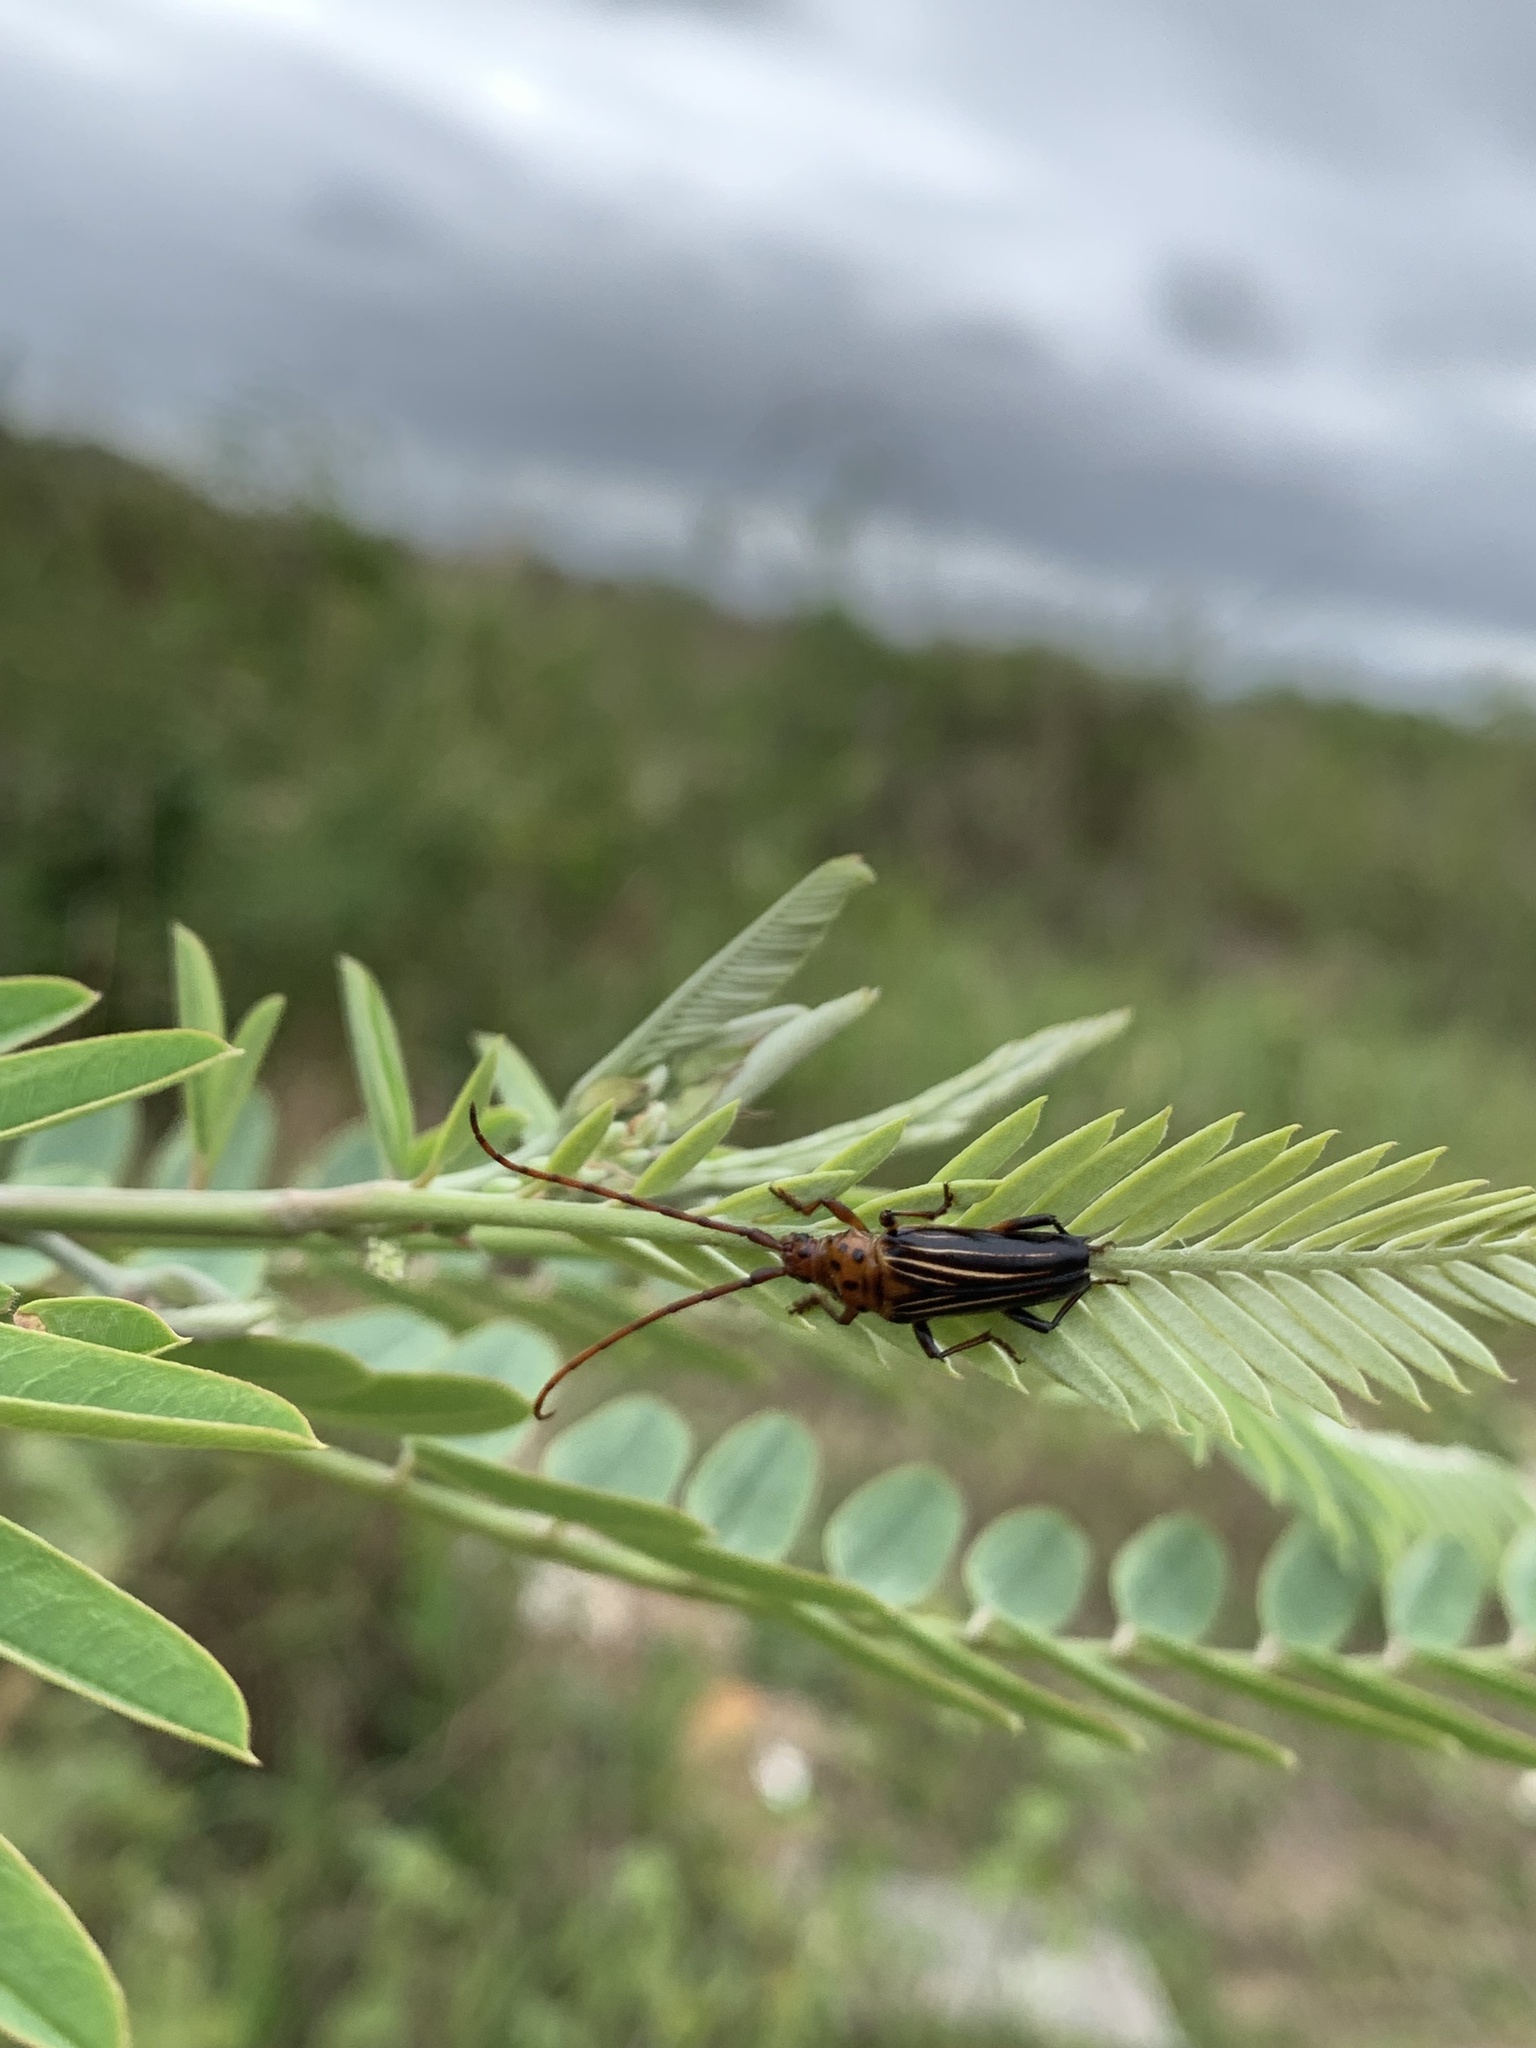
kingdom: Animalia
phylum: Arthropoda
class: Insecta
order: Coleoptera
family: Cerambycidae
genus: Oxymerus
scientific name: Oxymerus aculeatus
